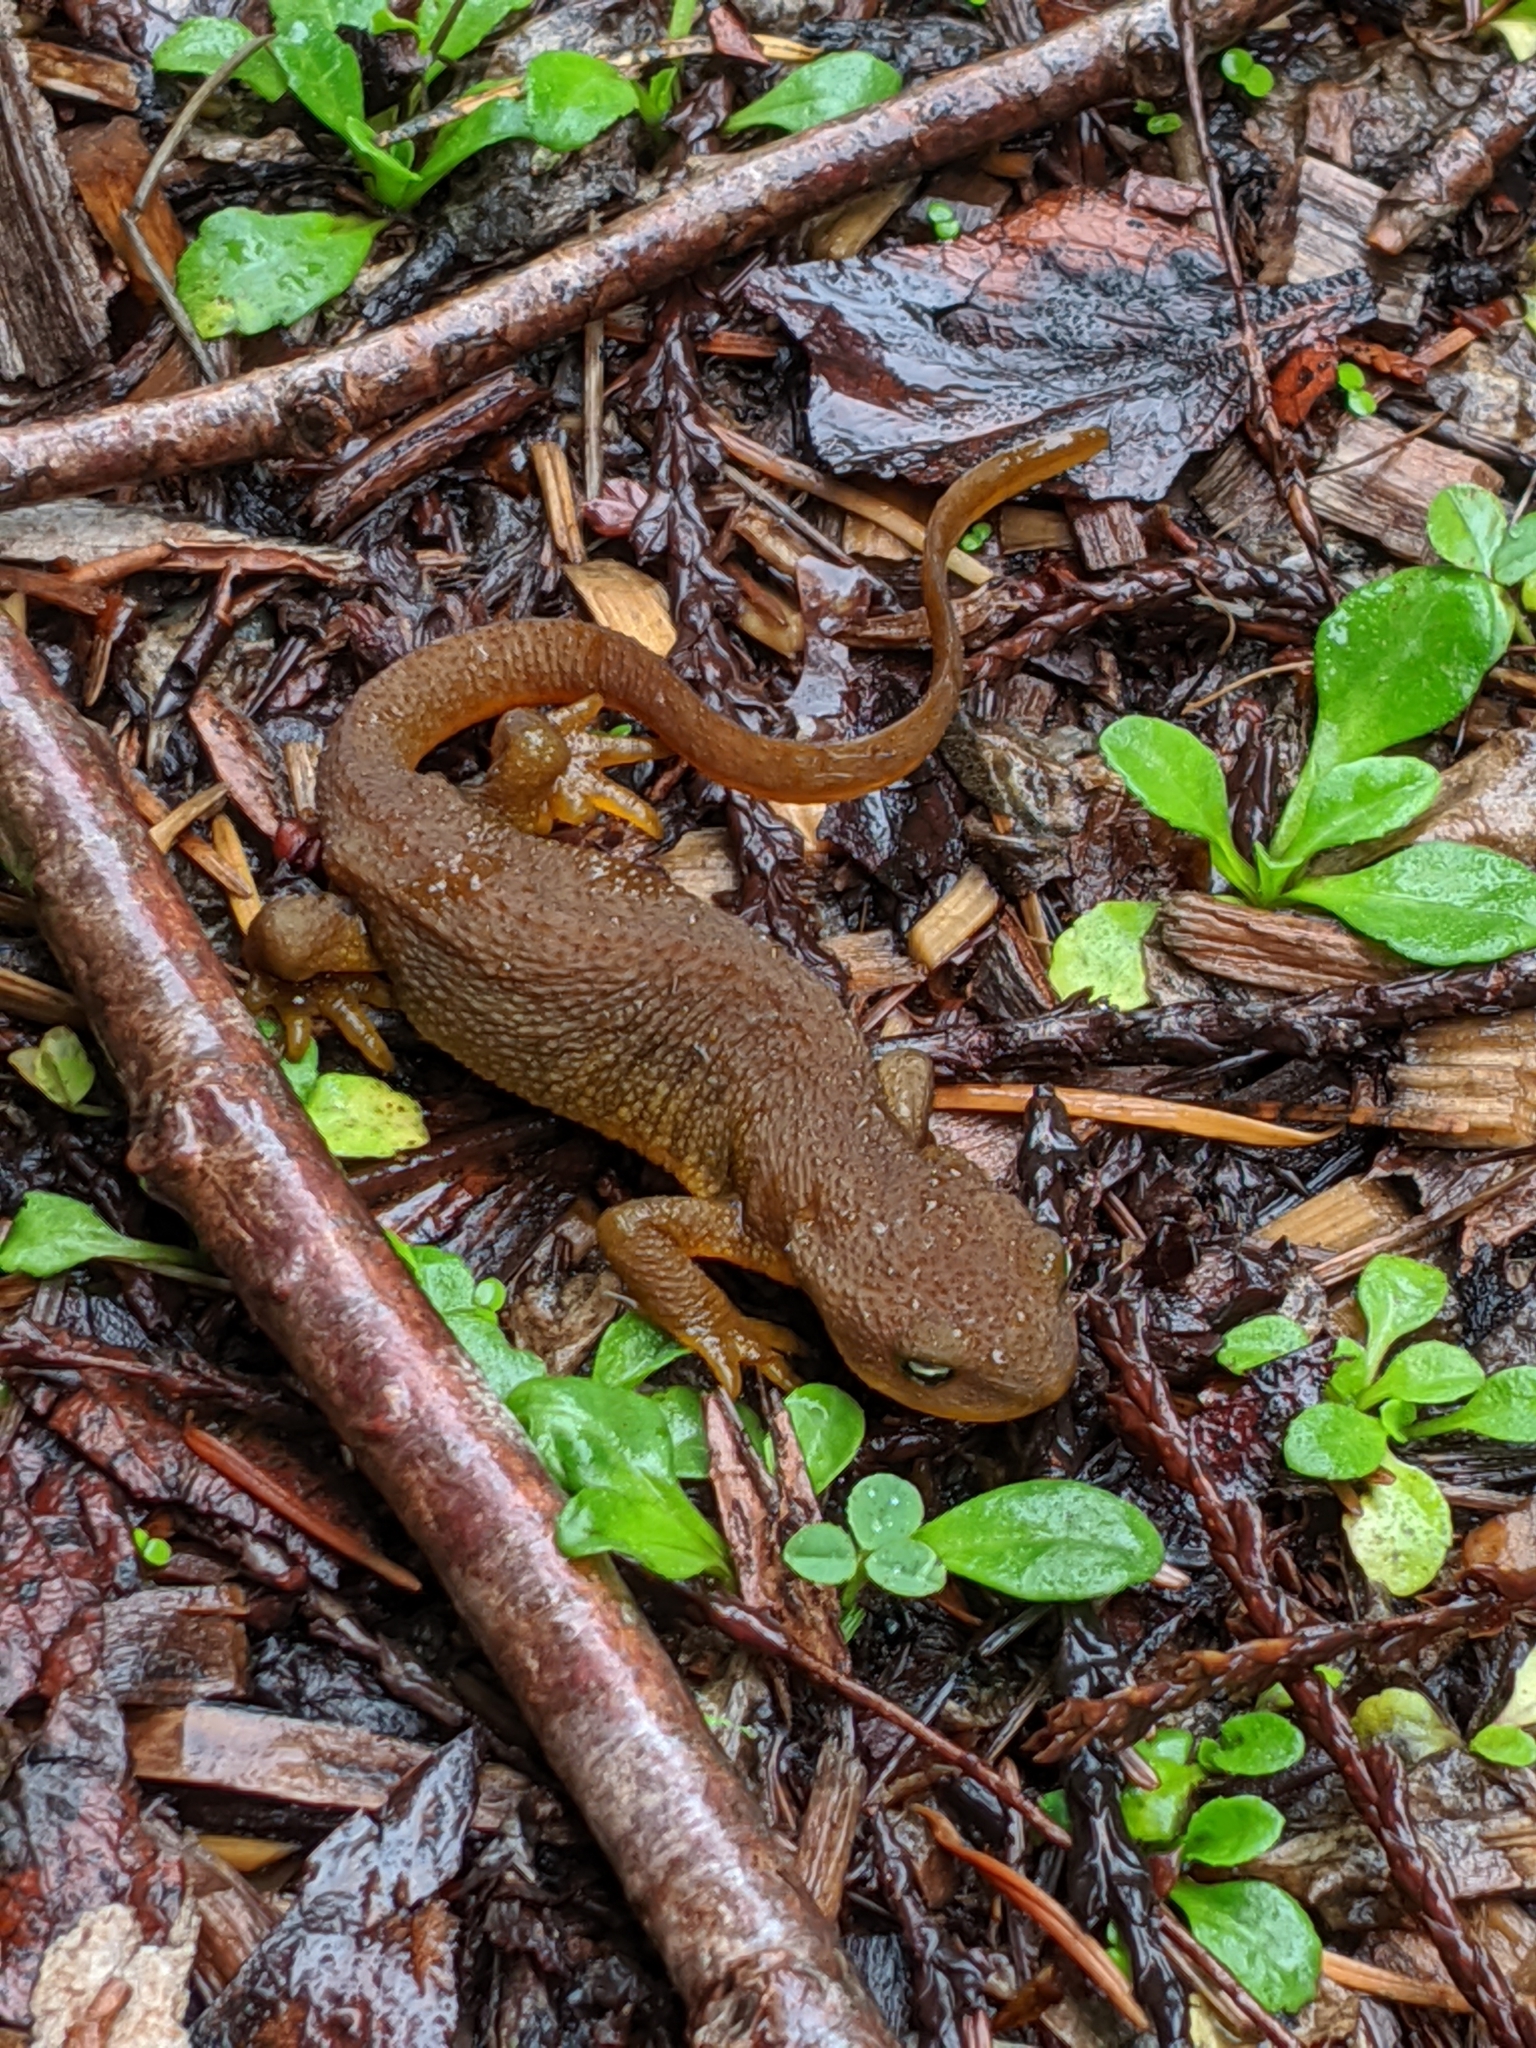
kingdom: Animalia
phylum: Chordata
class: Amphibia
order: Caudata
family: Salamandridae
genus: Taricha
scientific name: Taricha granulosa
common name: Roughskin newt
